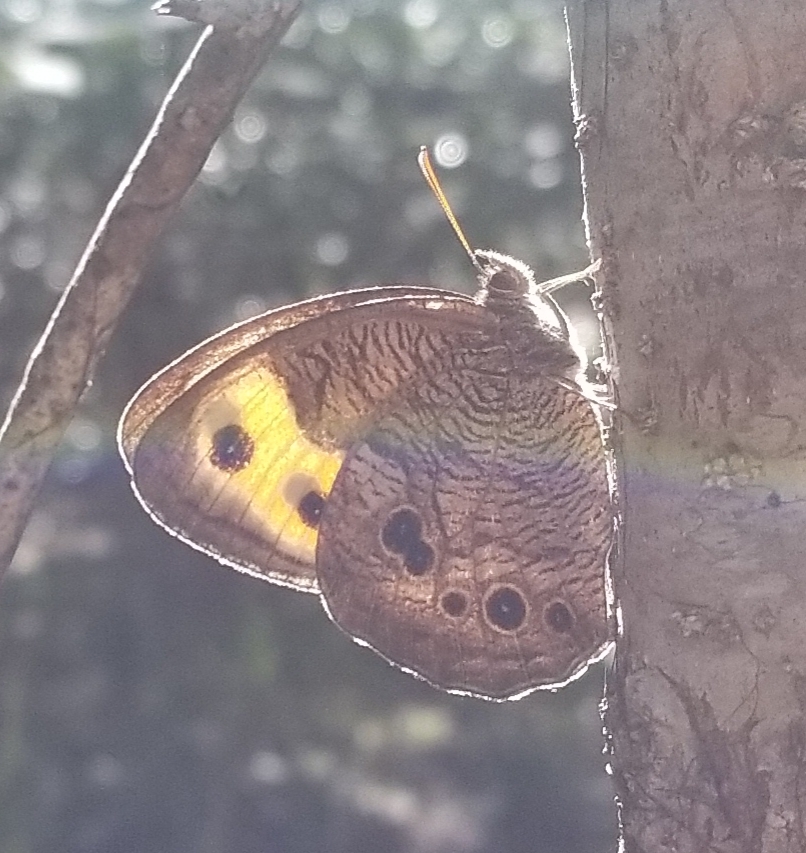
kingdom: Animalia
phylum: Arthropoda
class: Insecta
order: Lepidoptera
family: Nymphalidae
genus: Cercyonis
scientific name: Cercyonis pegala
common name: Common wood-nymph
